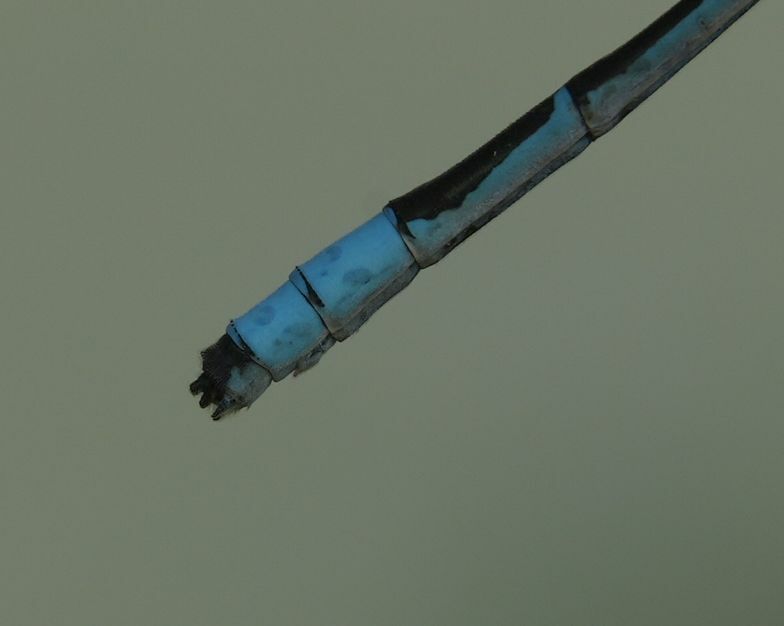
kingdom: Animalia
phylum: Arthropoda
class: Insecta
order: Odonata
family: Coenagrionidae
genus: Enallagma
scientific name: Enallagma ebrium
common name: Marsh bluet
